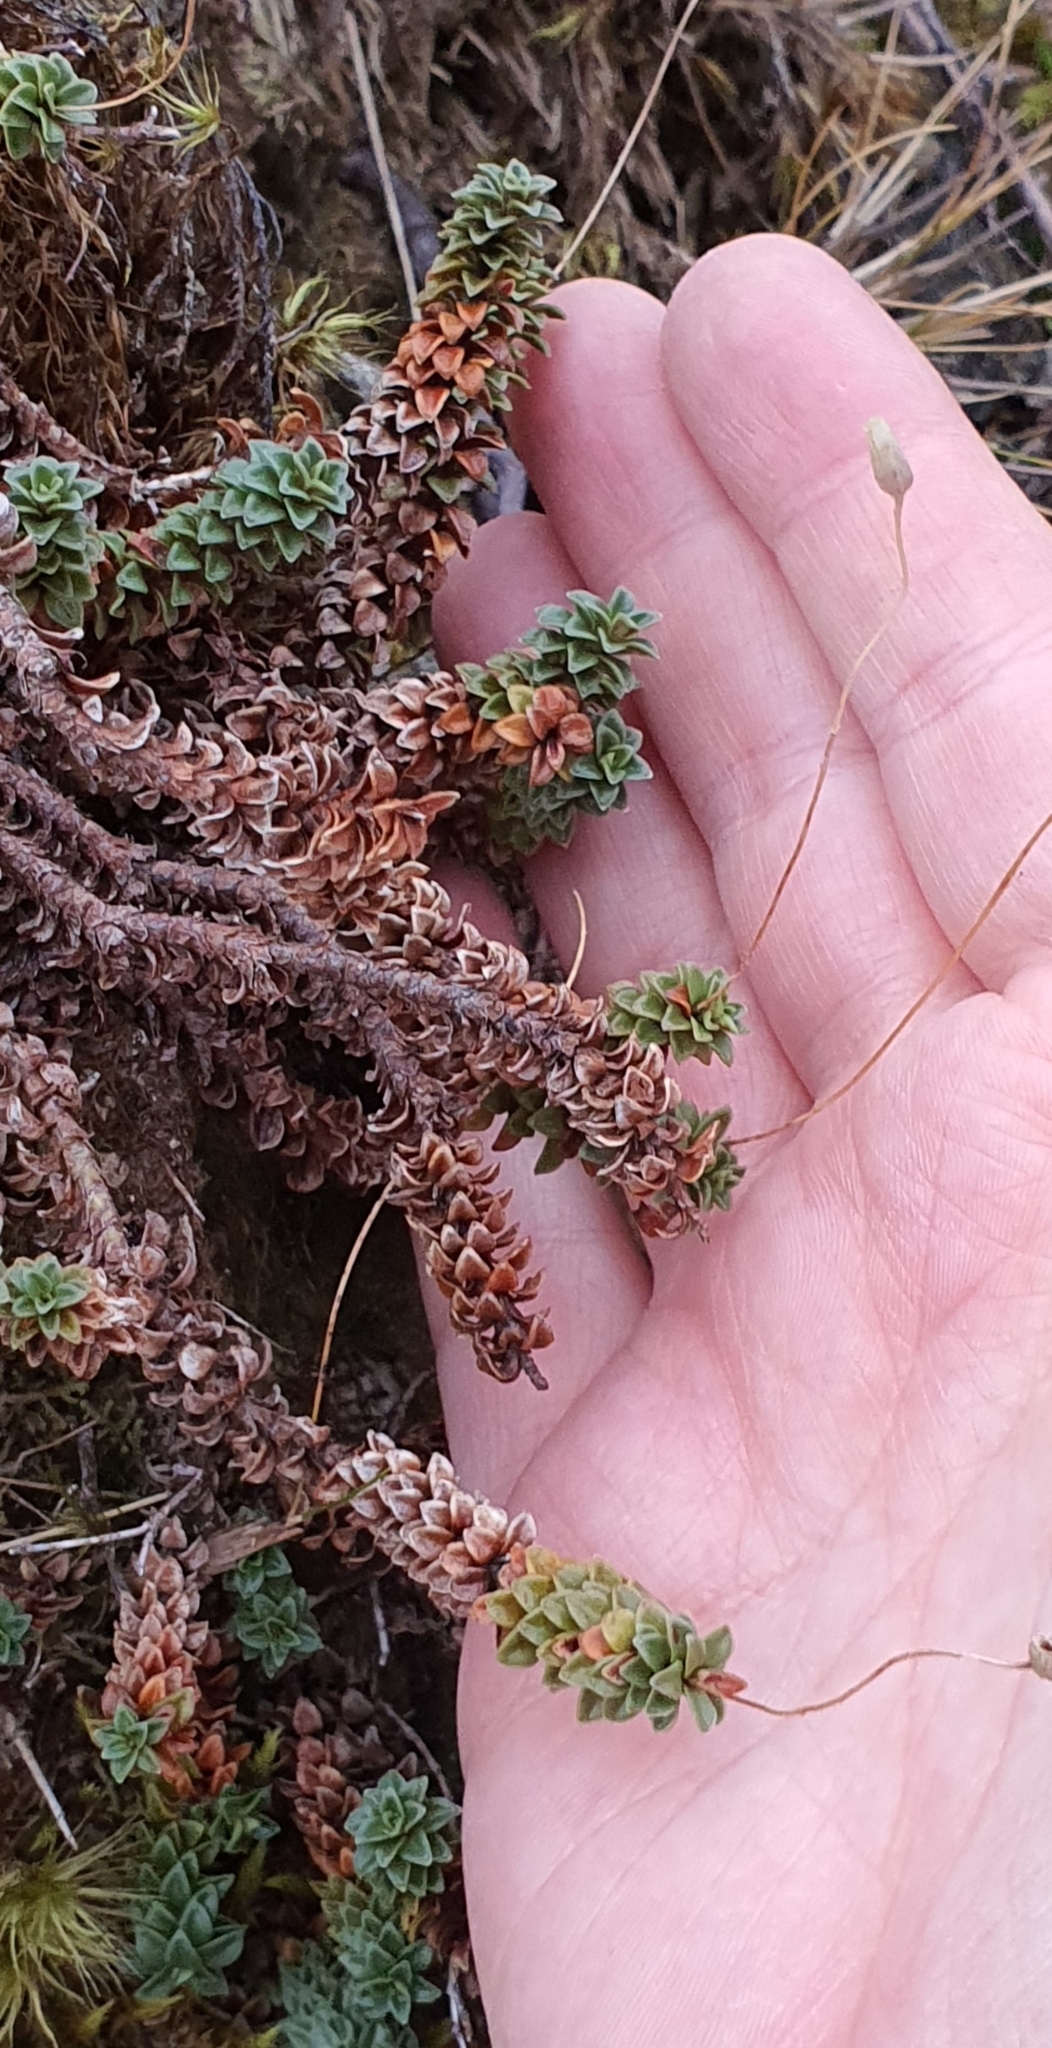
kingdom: Plantae
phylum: Tracheophyta
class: Magnoliopsida
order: Asterales
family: Stylidiaceae
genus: Forstera
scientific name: Forstera purpurata
